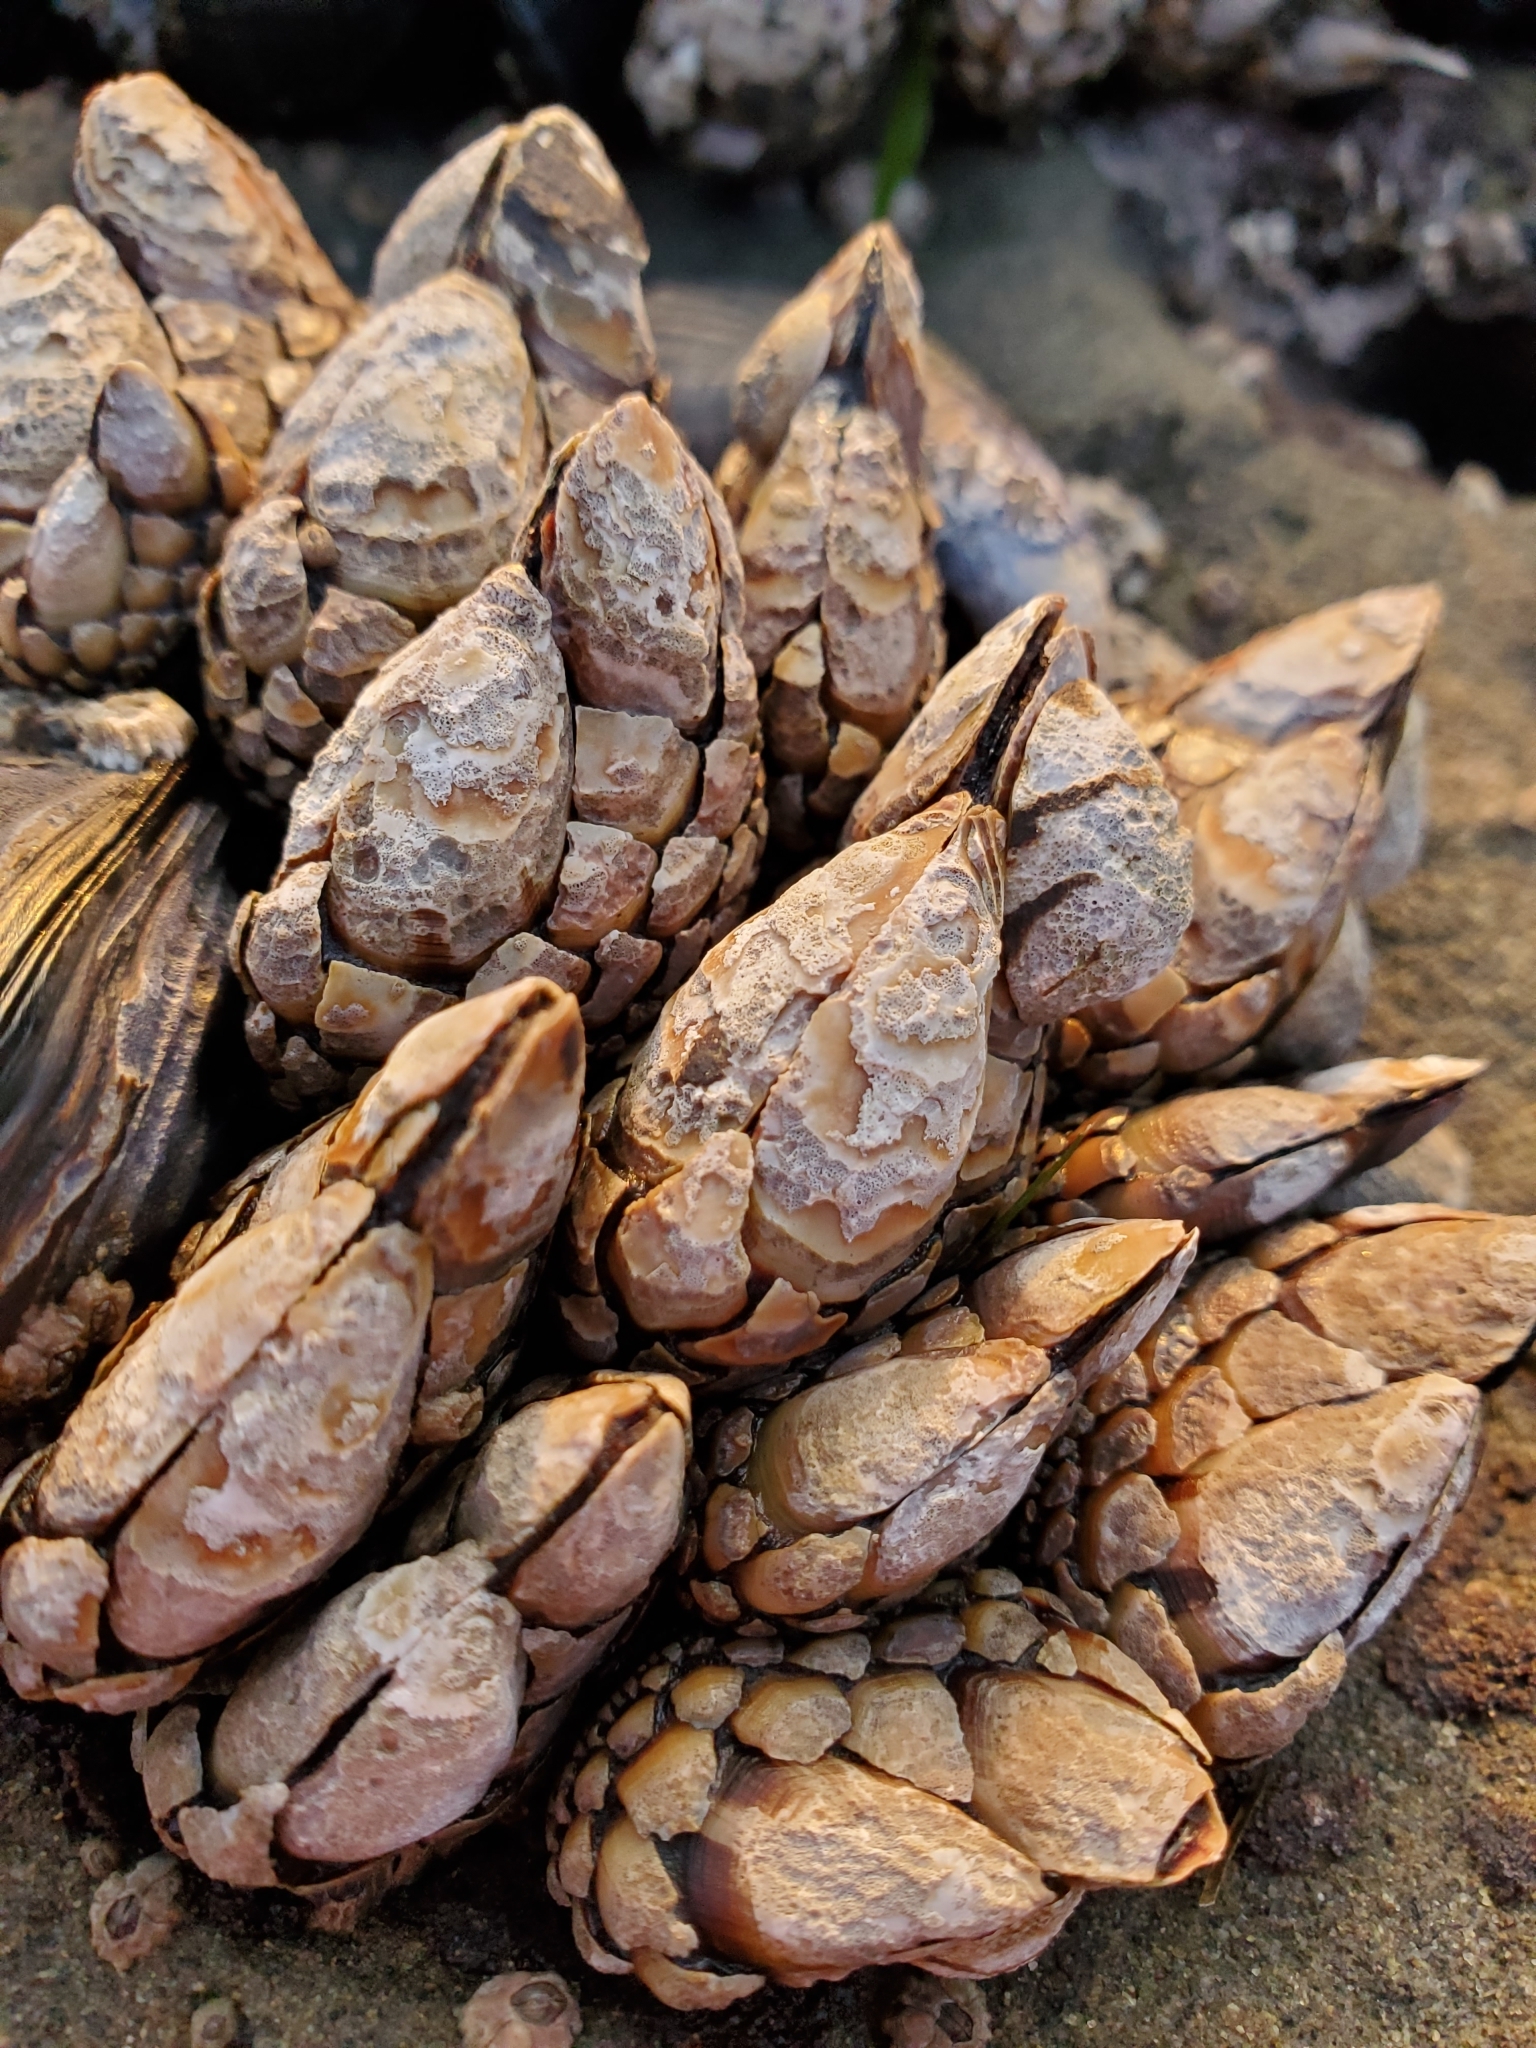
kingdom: Animalia
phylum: Arthropoda
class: Maxillopoda
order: Pedunculata
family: Pollicipedidae
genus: Pollicipes
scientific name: Pollicipes polymerus
